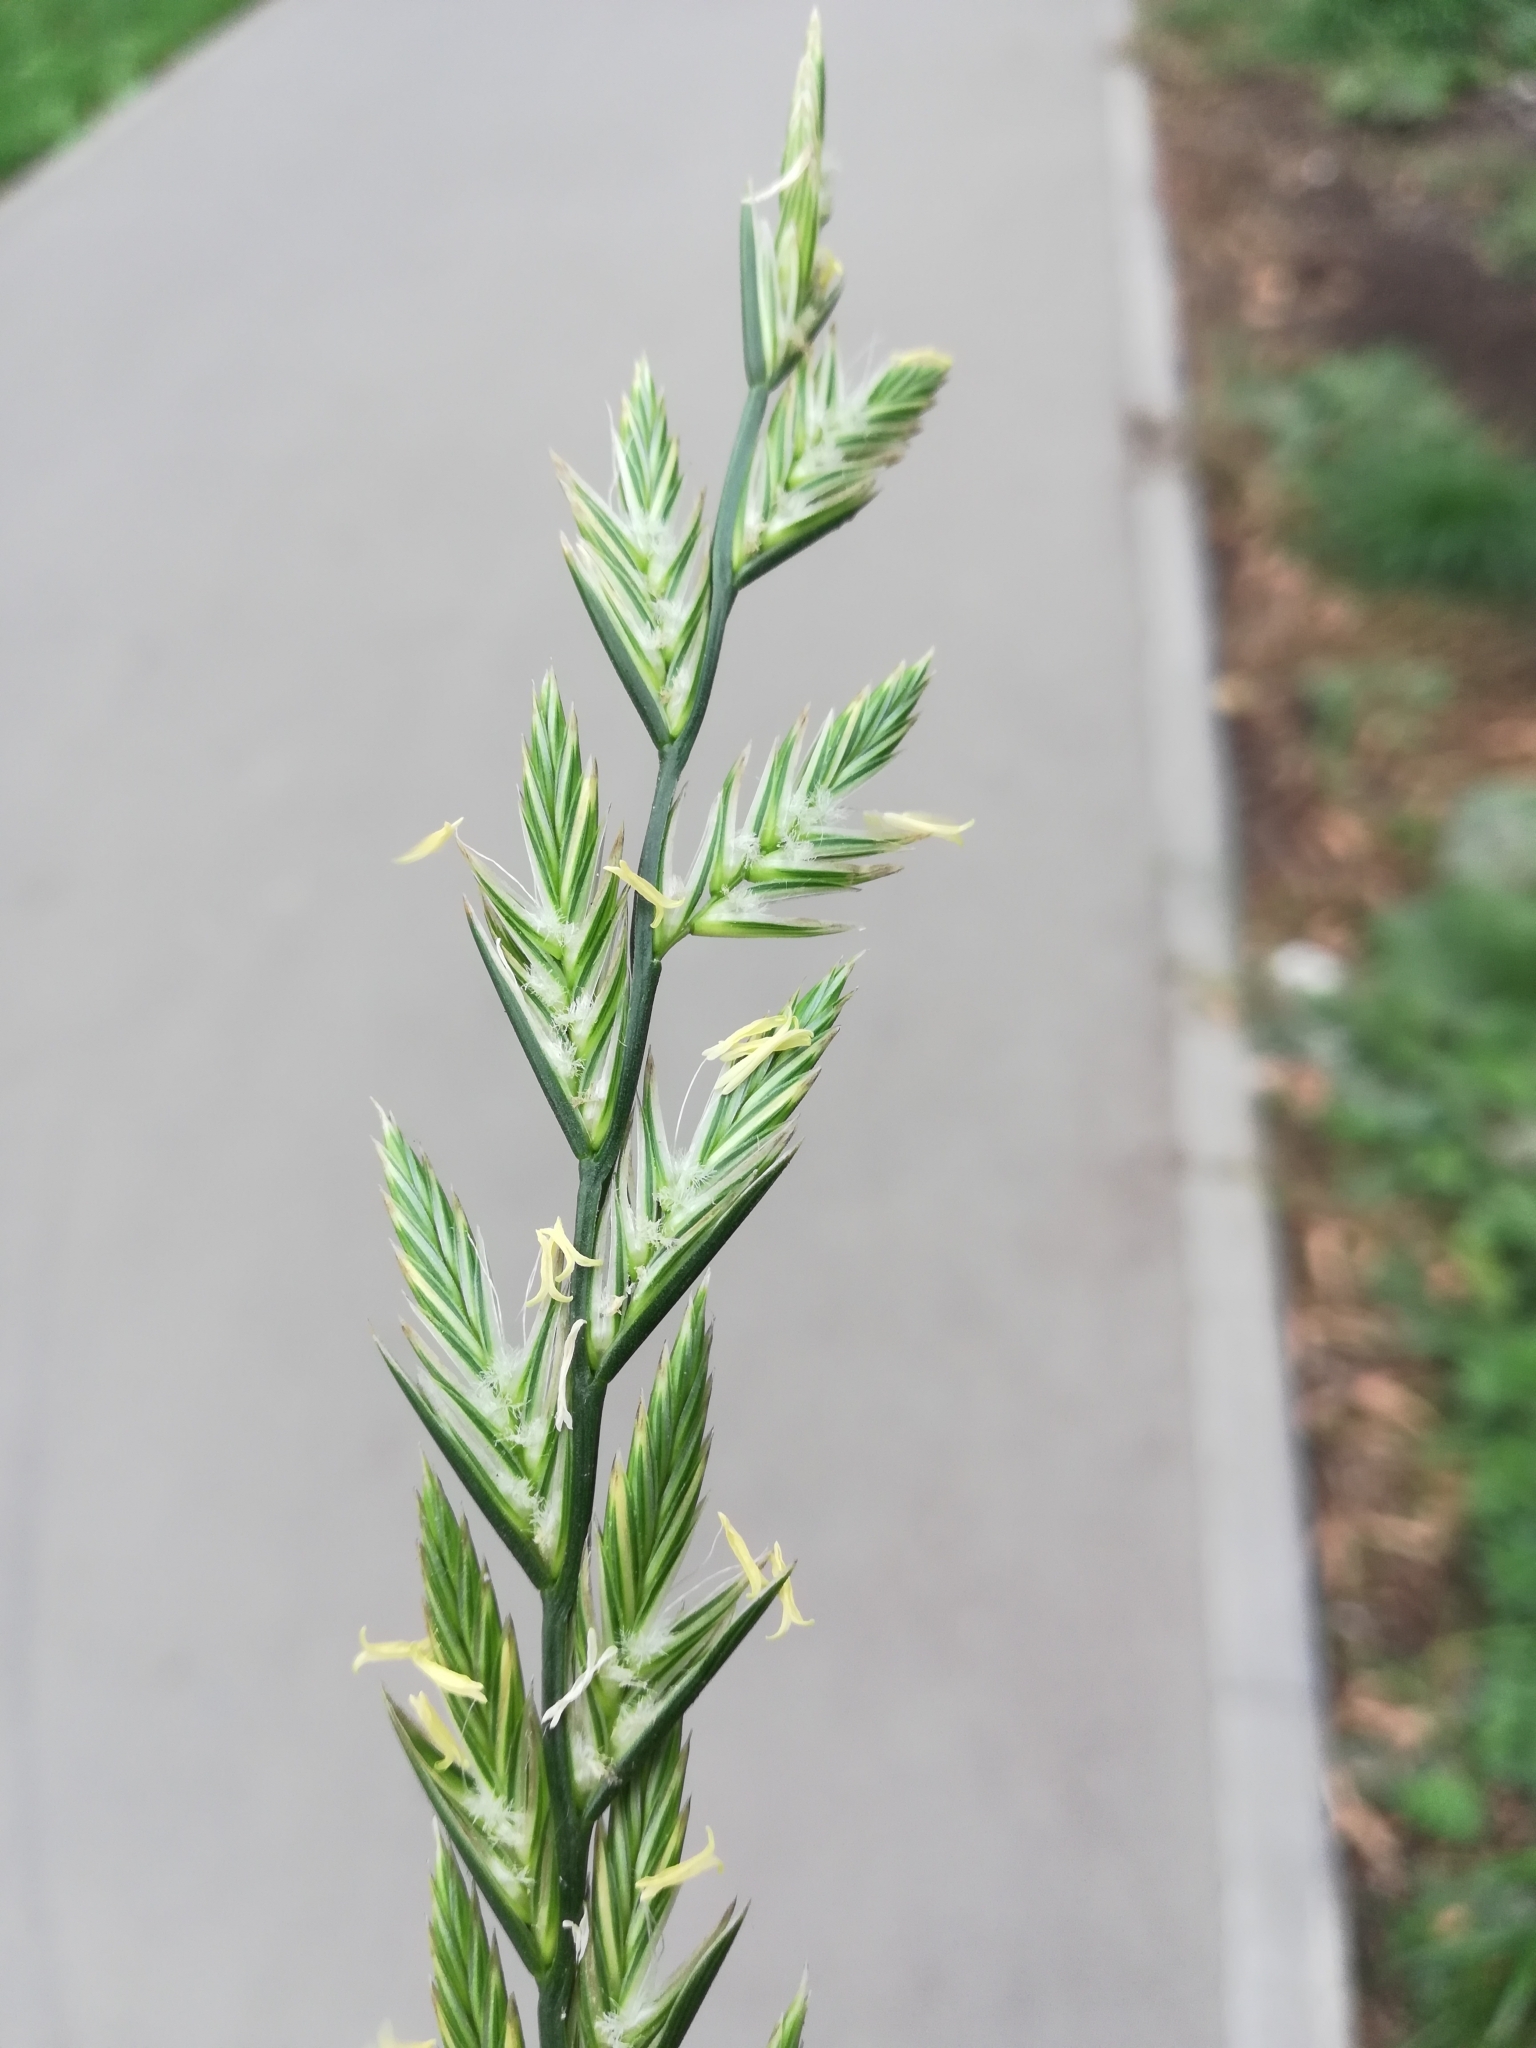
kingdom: Plantae
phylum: Tracheophyta
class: Liliopsida
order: Poales
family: Poaceae
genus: Lolium
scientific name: Lolium multiflorum
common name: Annual ryegrass
